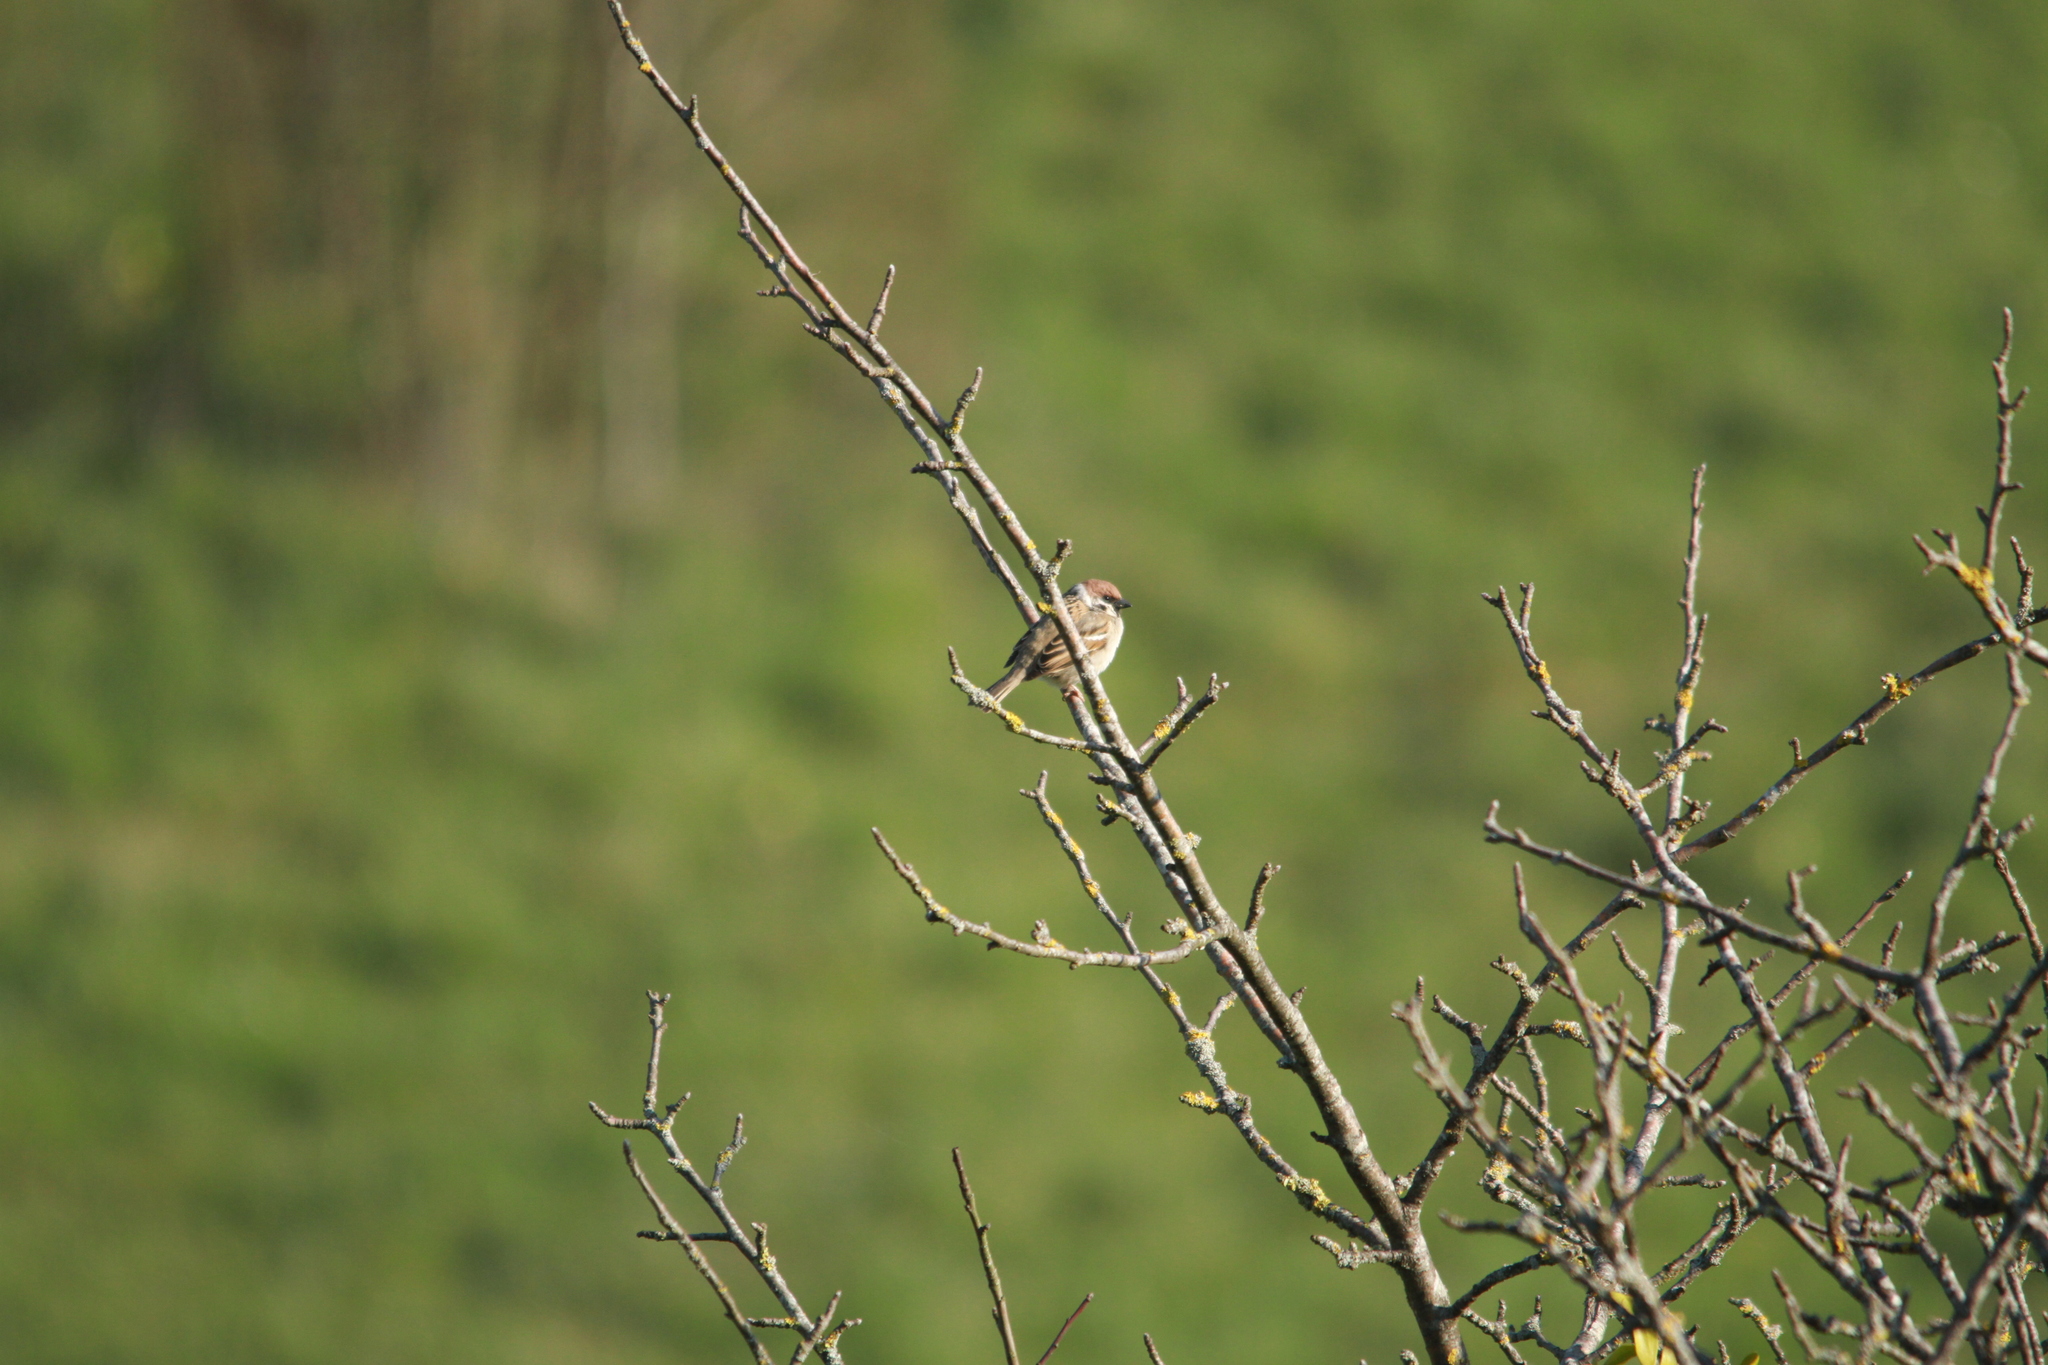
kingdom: Animalia
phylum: Chordata
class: Aves
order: Passeriformes
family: Passeridae
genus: Passer
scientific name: Passer montanus
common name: Eurasian tree sparrow
